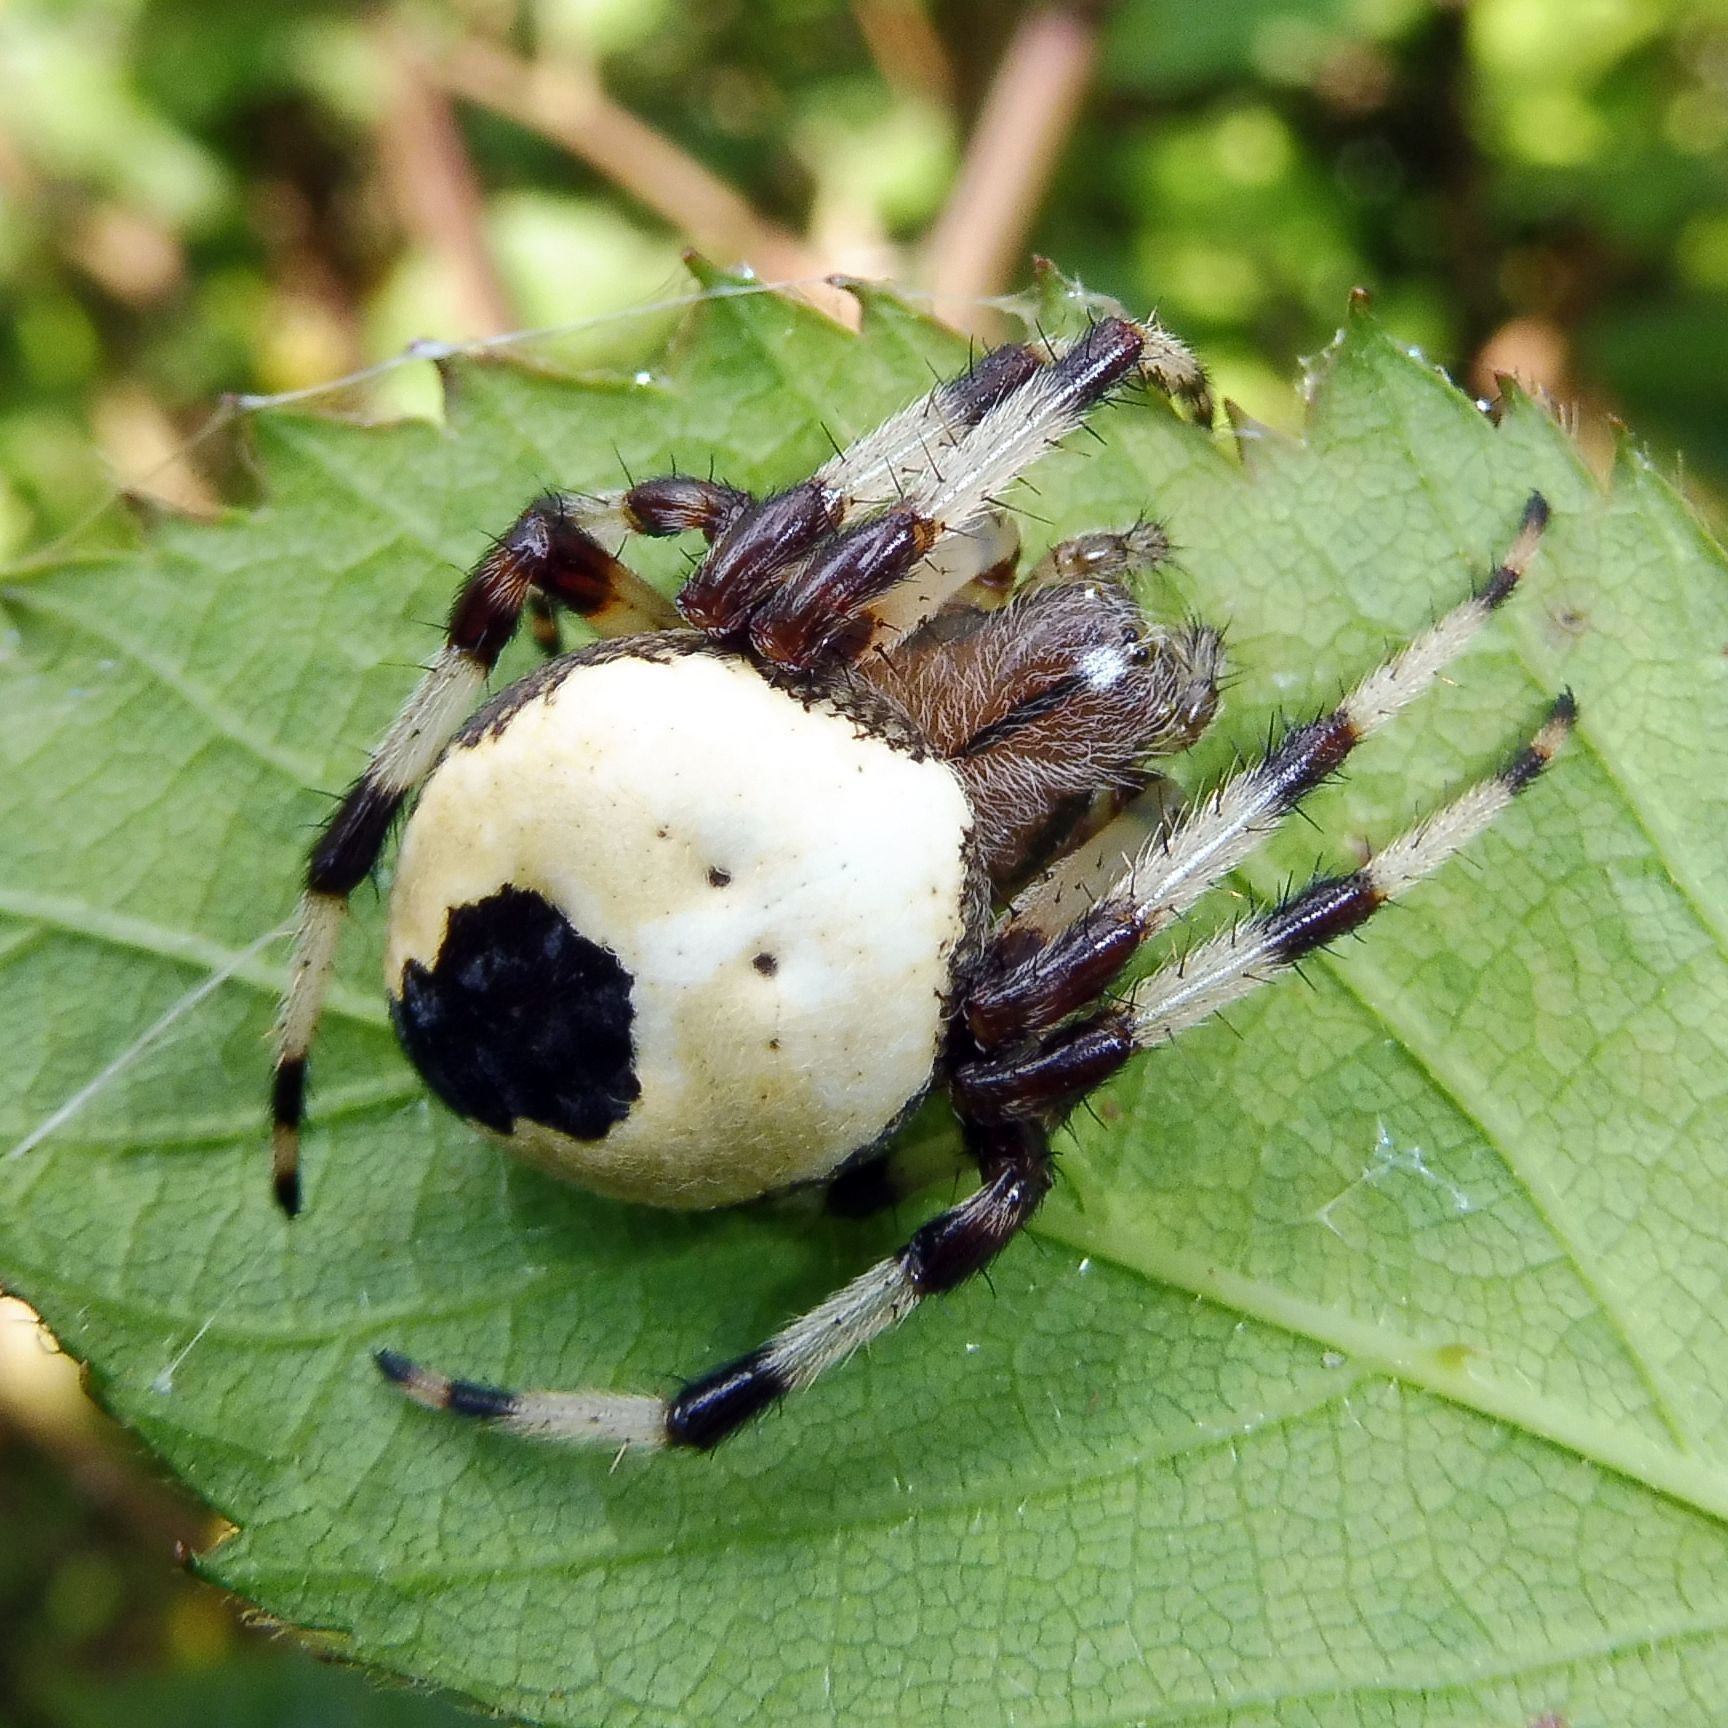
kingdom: Animalia
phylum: Arthropoda
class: Arachnida
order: Araneae
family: Araneidae
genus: Araneus
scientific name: Araneus marmoreus
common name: Marbled orbweaver
